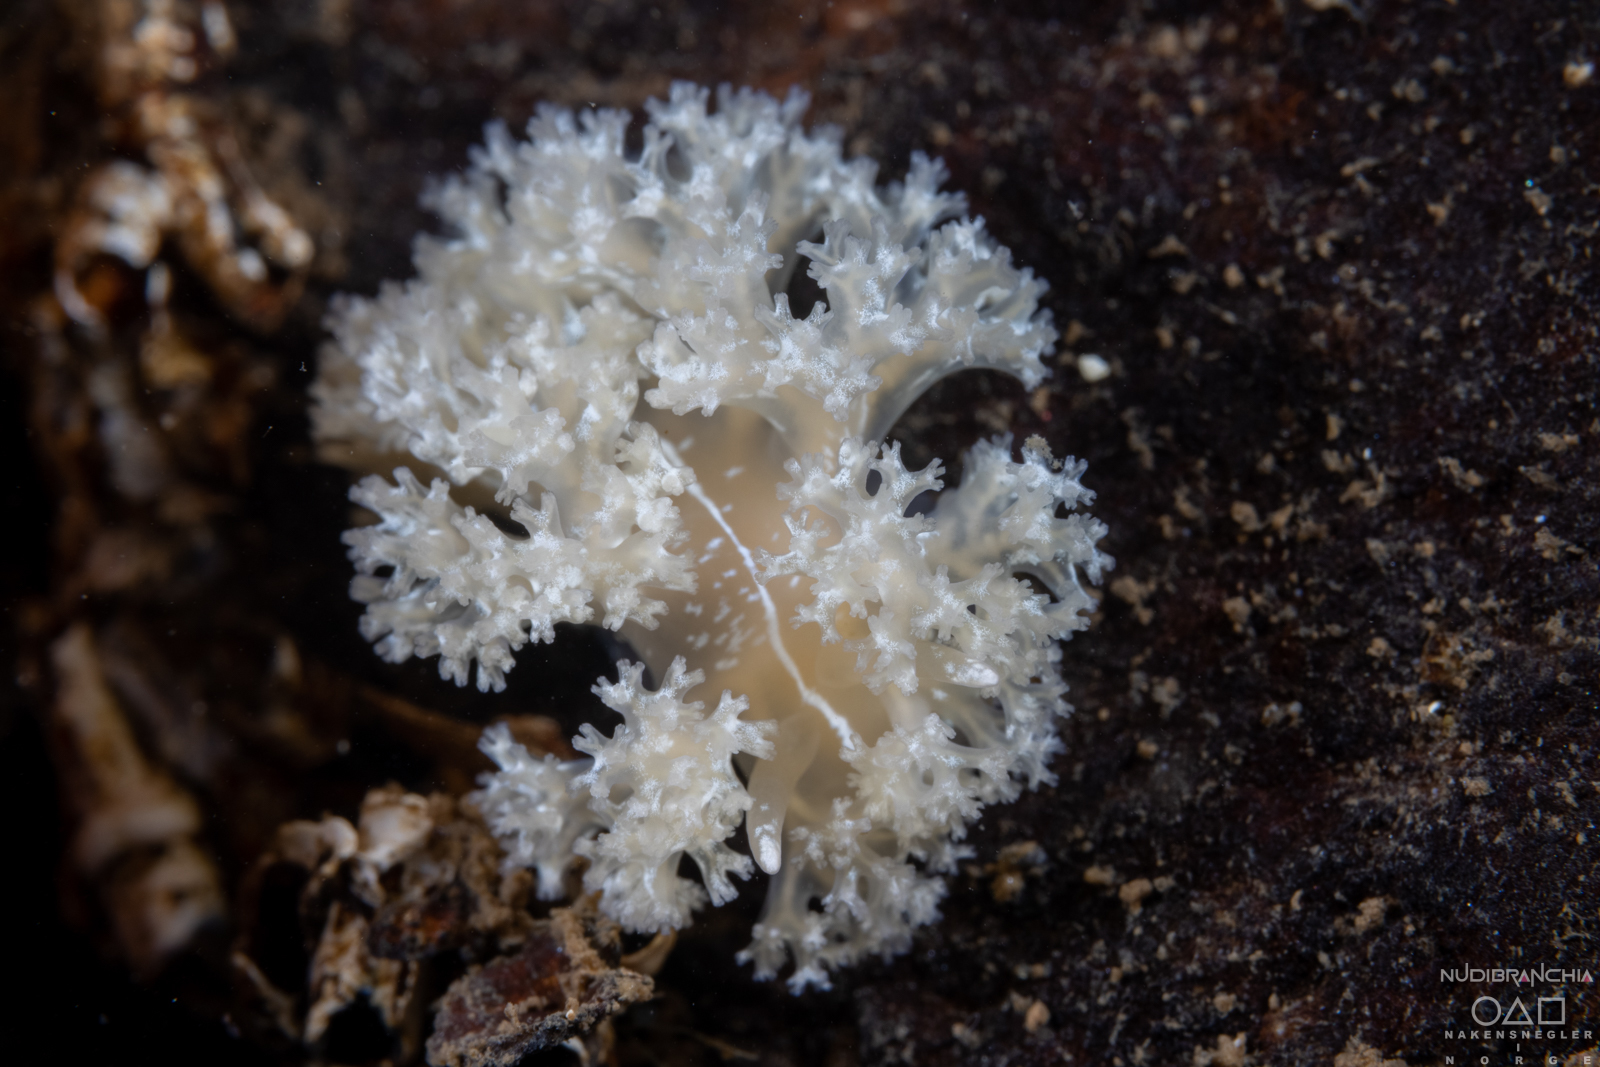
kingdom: Animalia
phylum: Mollusca
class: Gastropoda
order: Nudibranchia
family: Heroidae
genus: Hero
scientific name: Hero formosa
